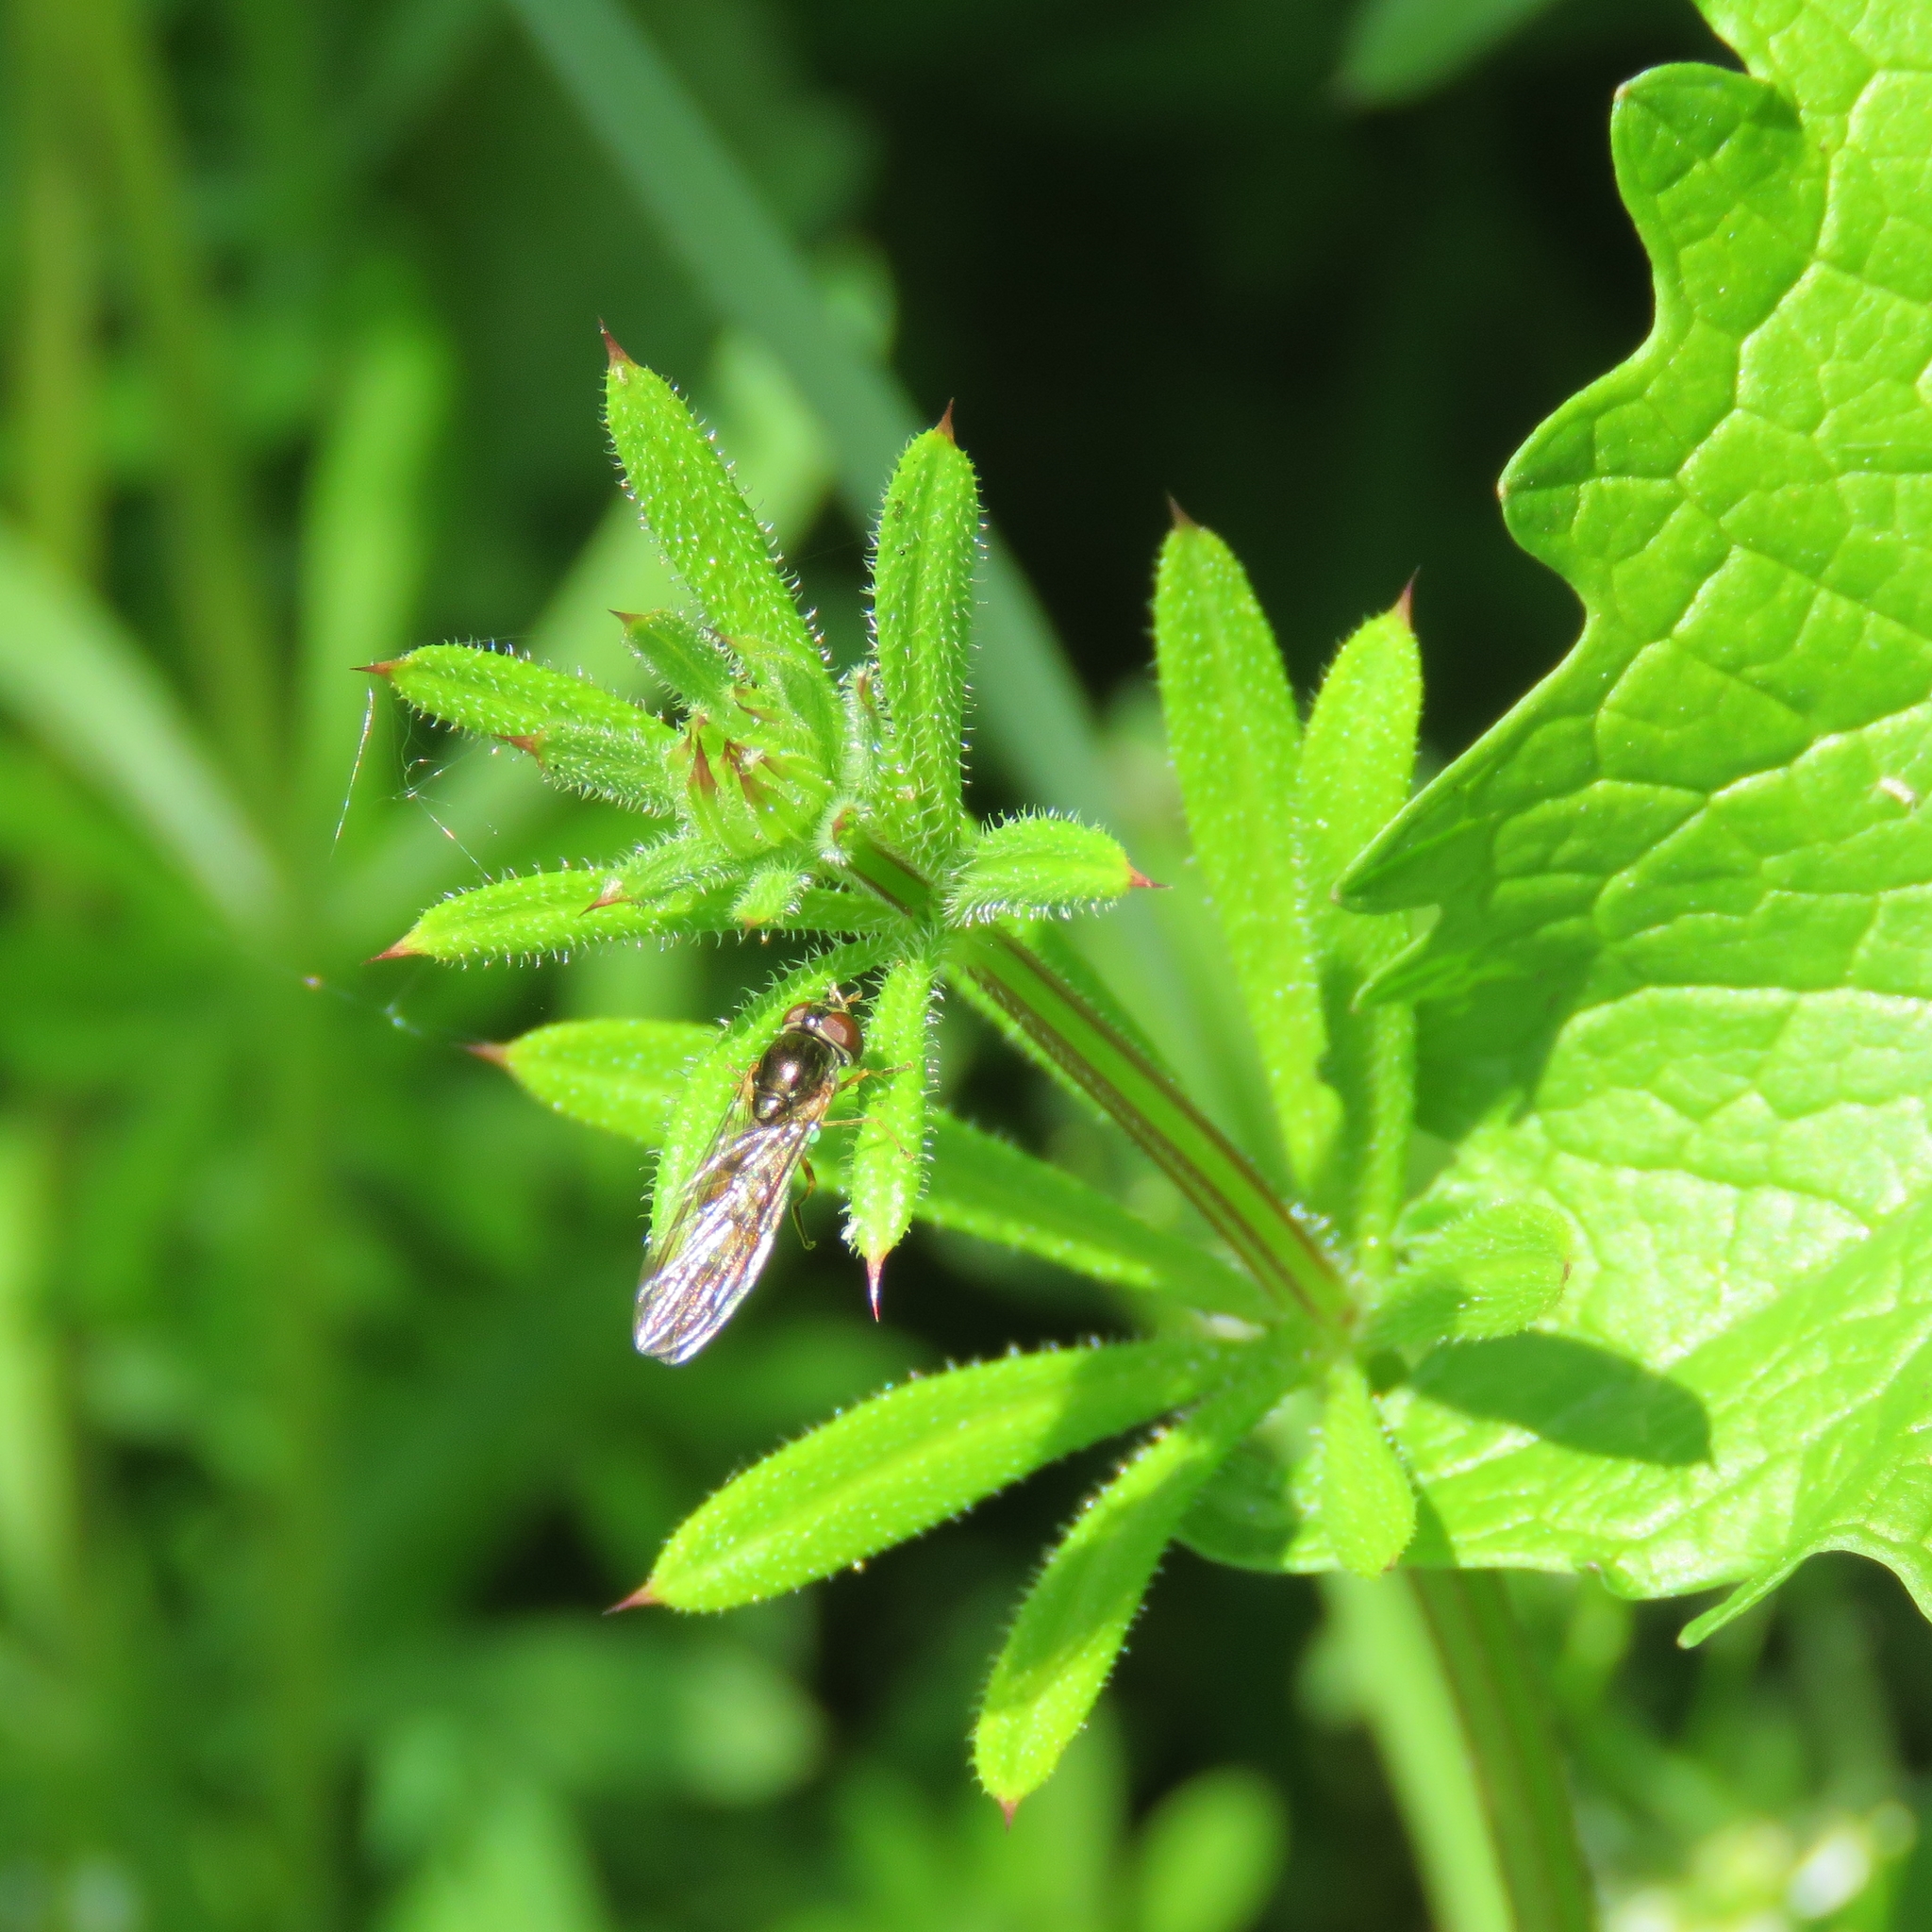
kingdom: Plantae
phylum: Tracheophyta
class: Magnoliopsida
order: Gentianales
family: Rubiaceae
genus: Galium
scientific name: Galium aparine
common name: Cleavers
